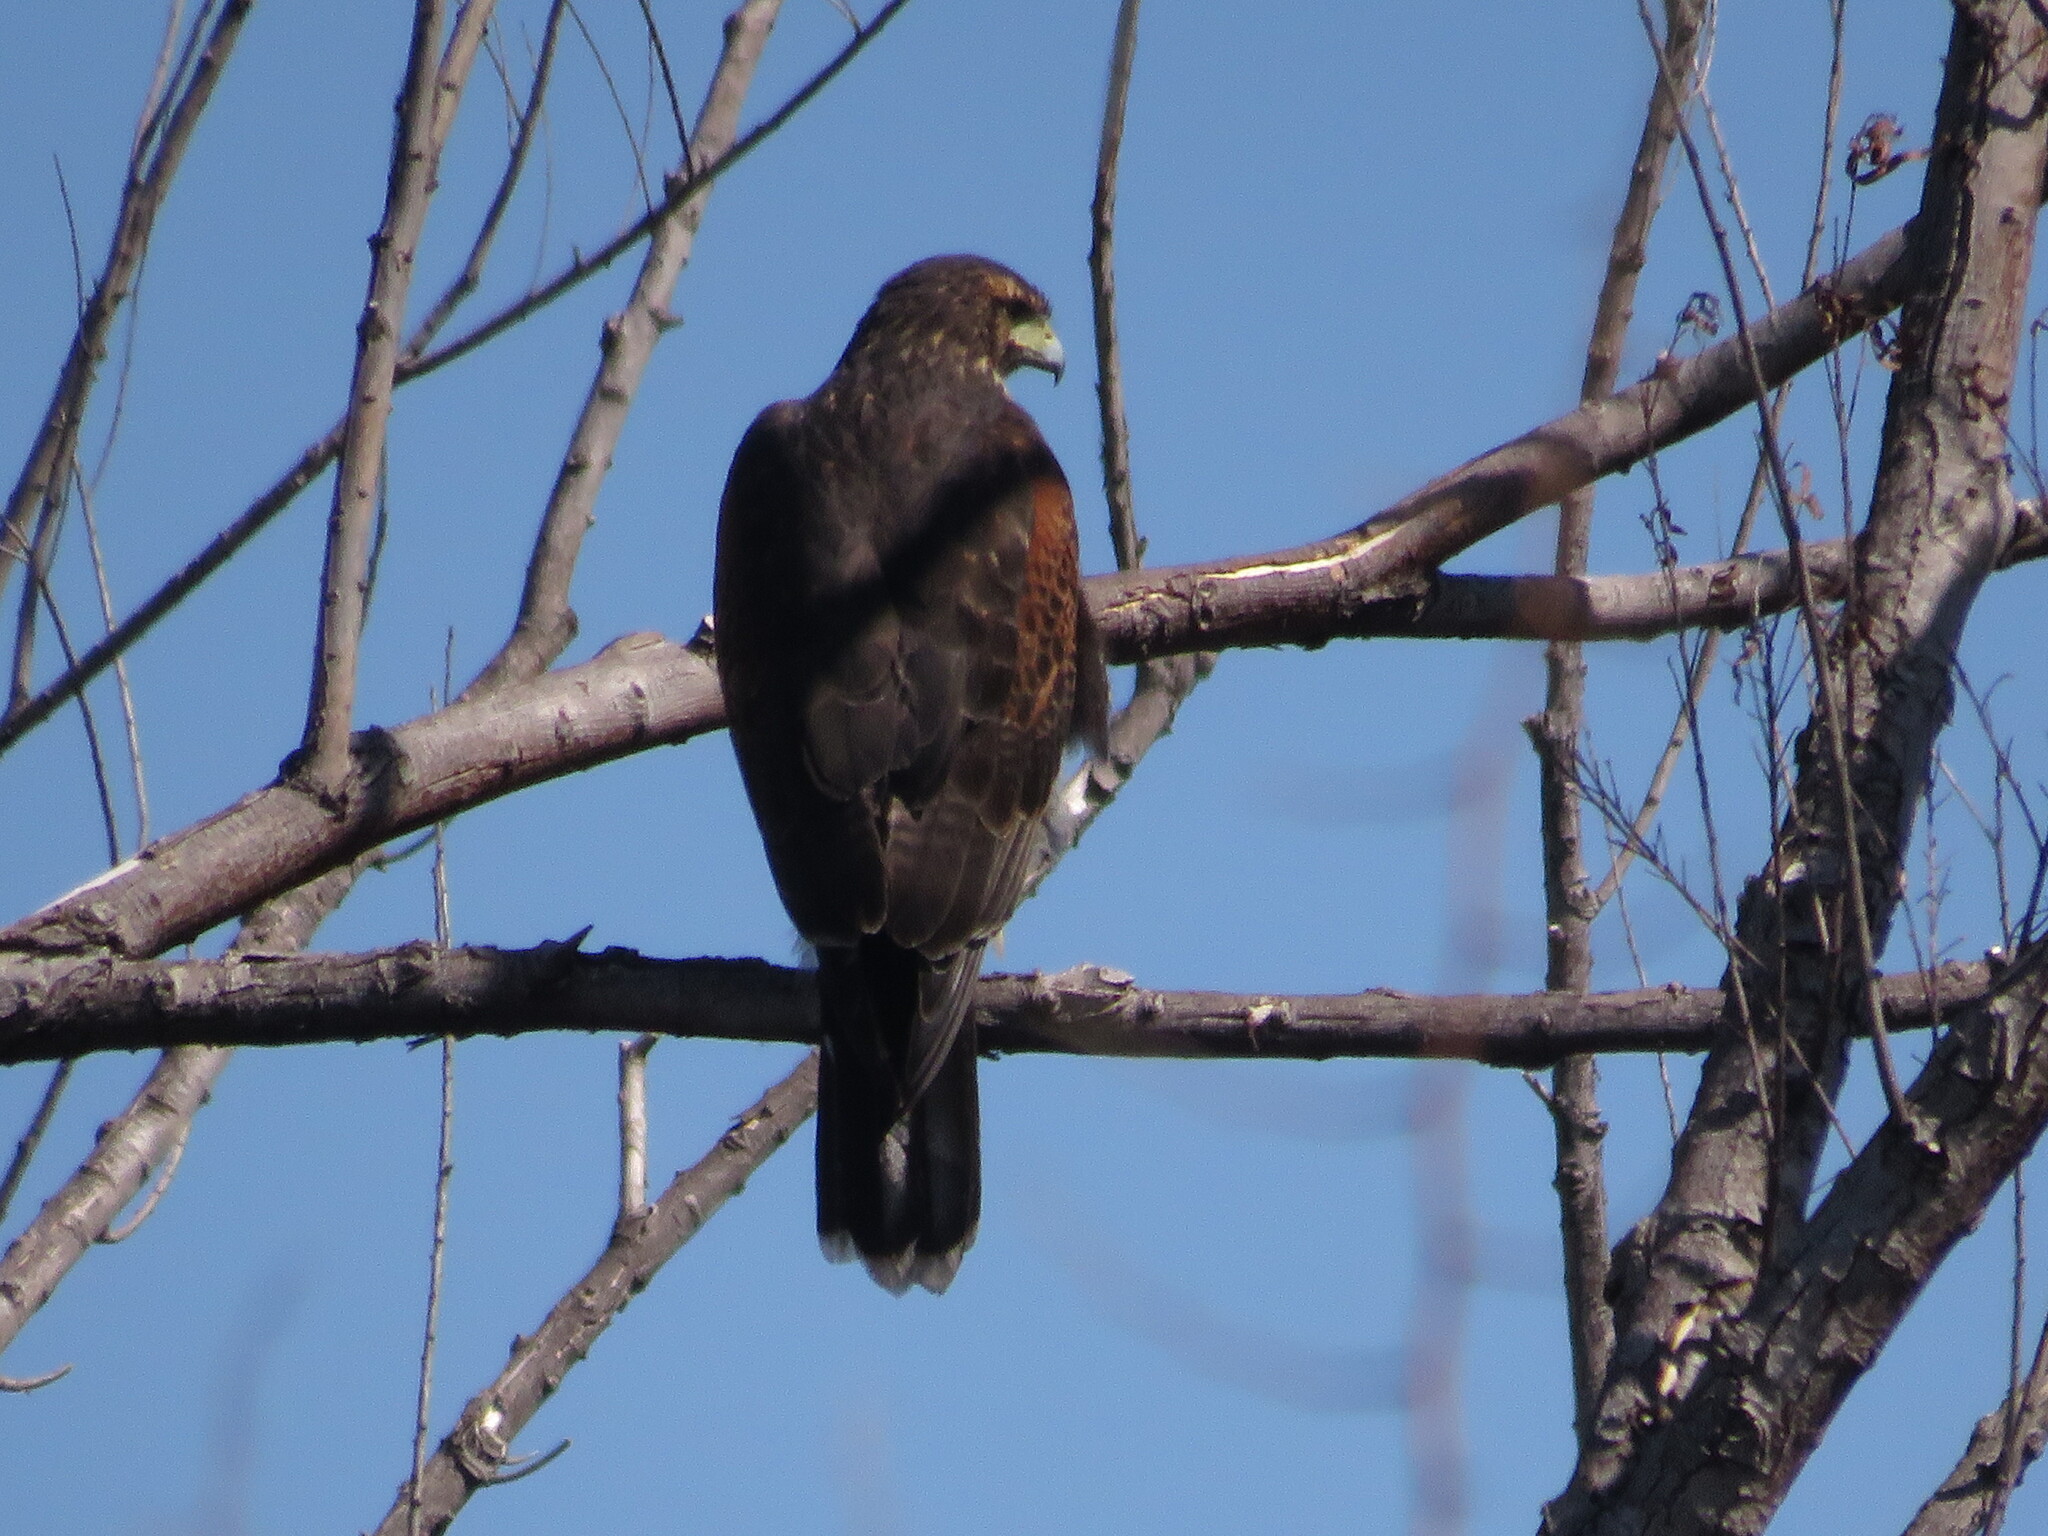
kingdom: Animalia
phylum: Chordata
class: Aves
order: Accipitriformes
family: Accipitridae
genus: Parabuteo
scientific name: Parabuteo unicinctus
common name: Harris's hawk
